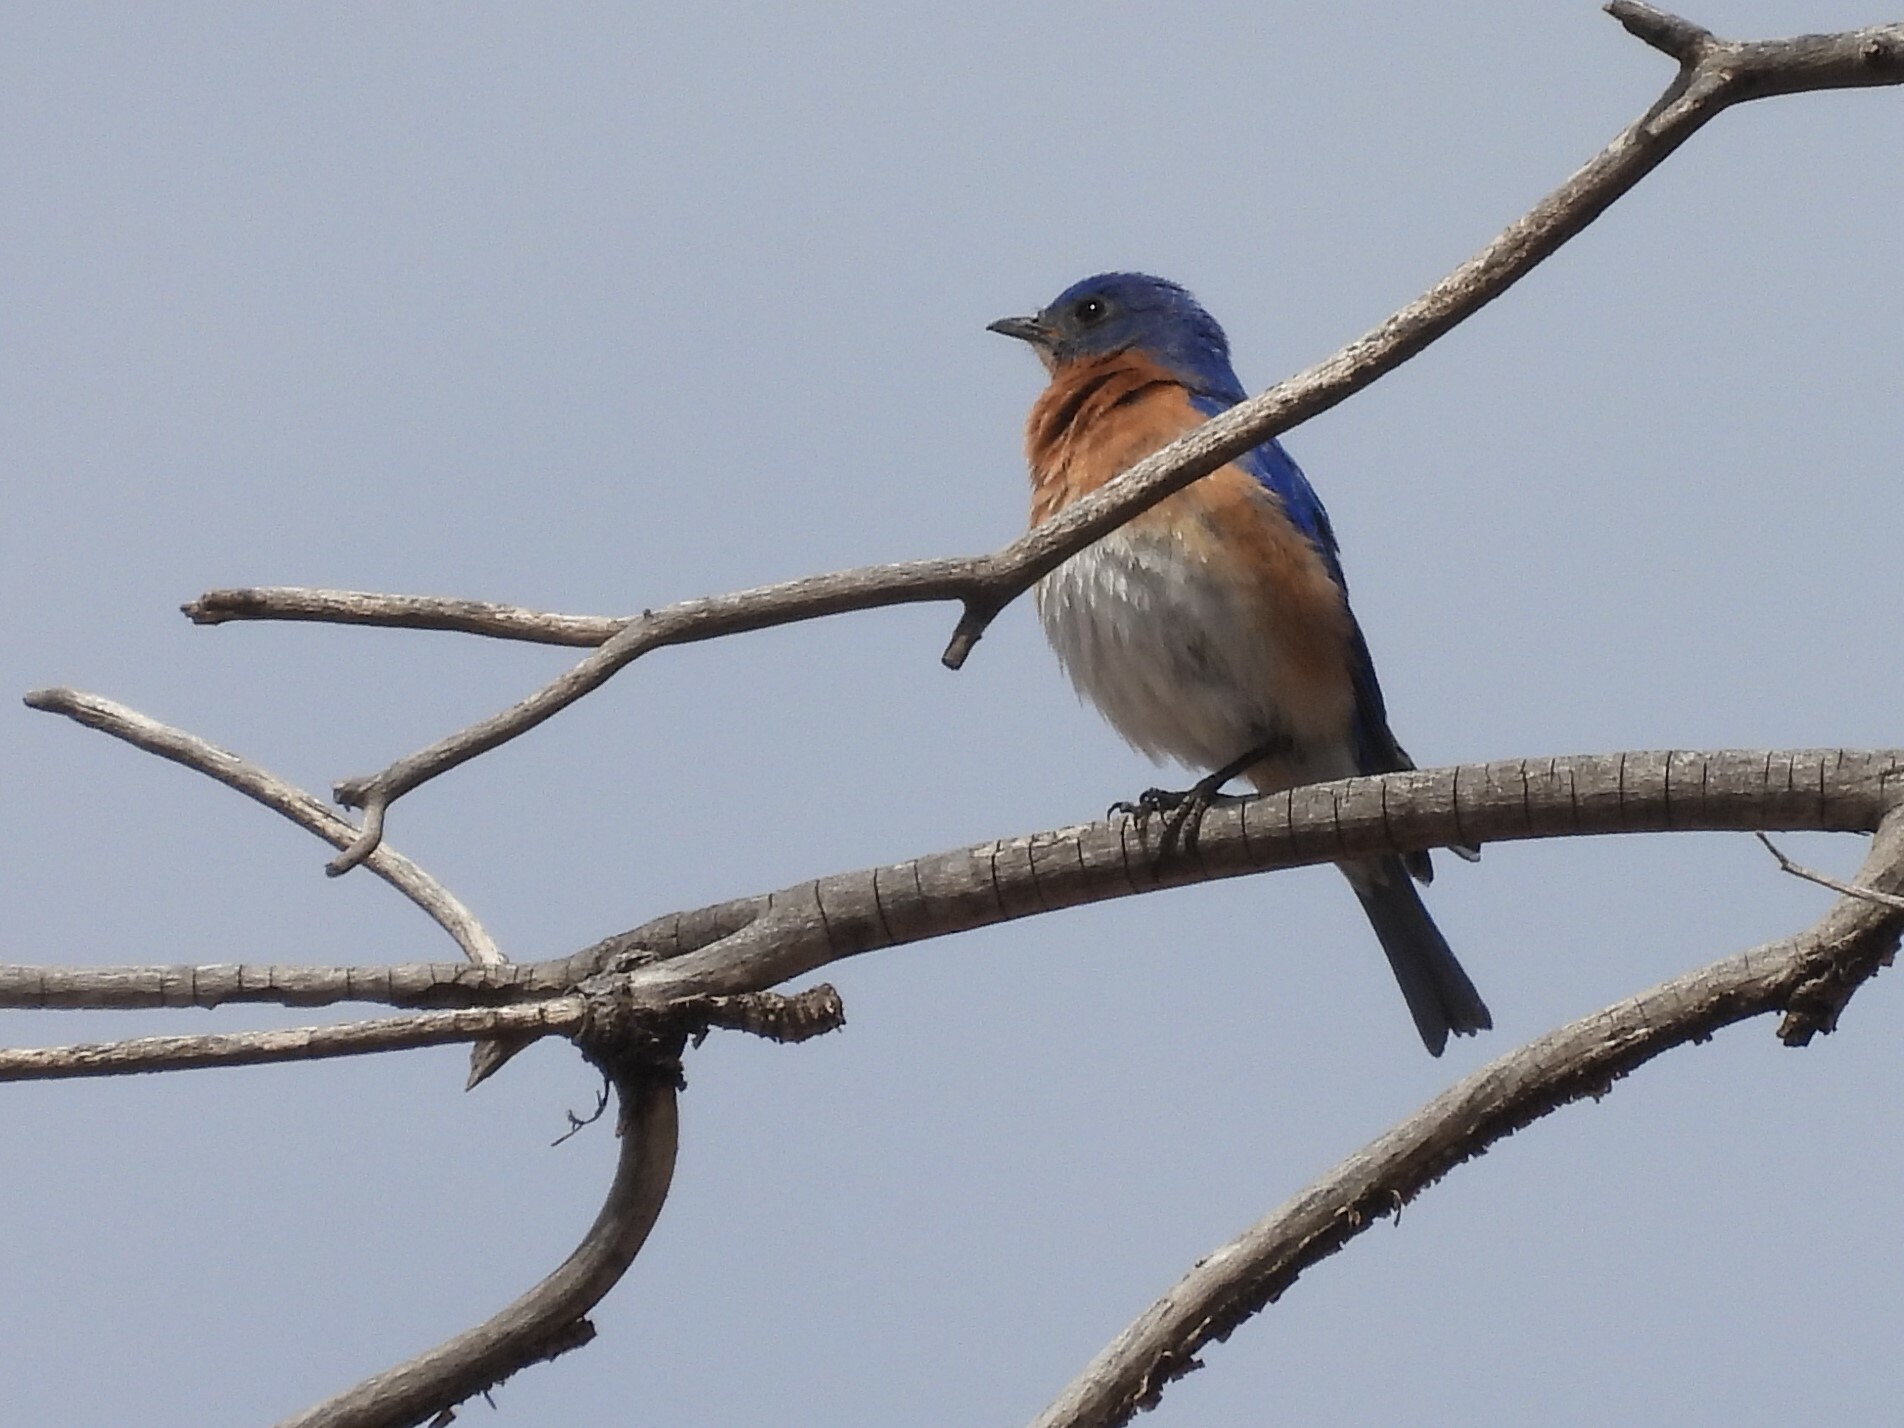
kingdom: Animalia
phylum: Chordata
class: Aves
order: Passeriformes
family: Turdidae
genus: Sialia
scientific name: Sialia sialis
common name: Eastern bluebird
